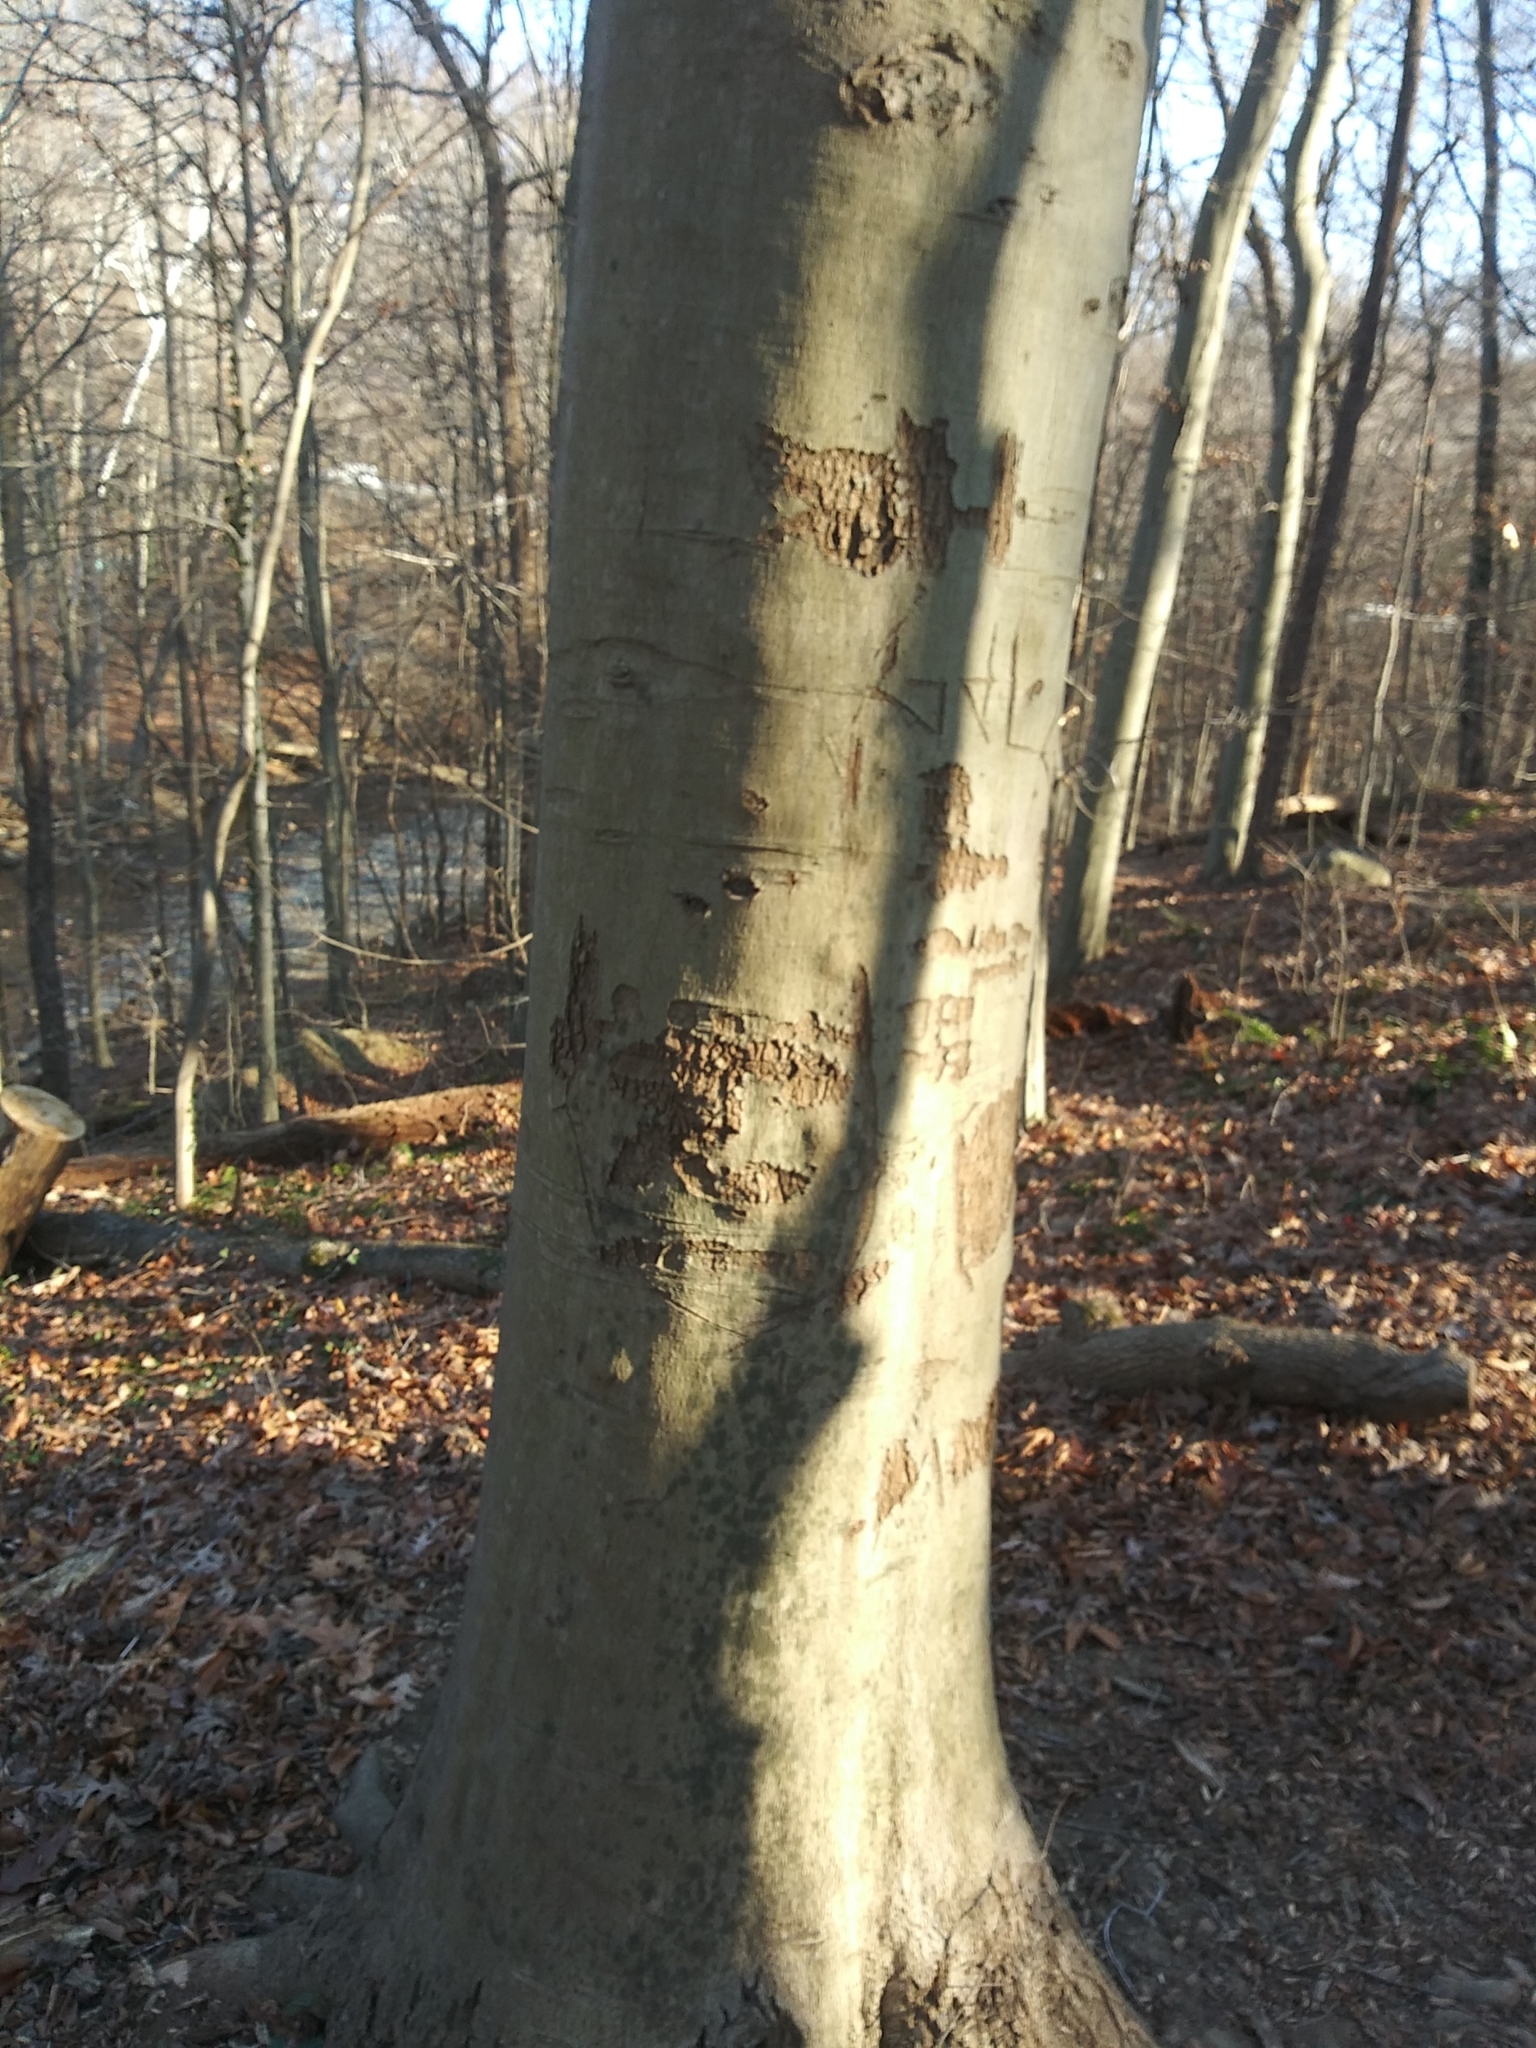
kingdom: Plantae
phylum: Tracheophyta
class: Magnoliopsida
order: Fagales
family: Fagaceae
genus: Fagus
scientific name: Fagus grandifolia
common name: American beech
